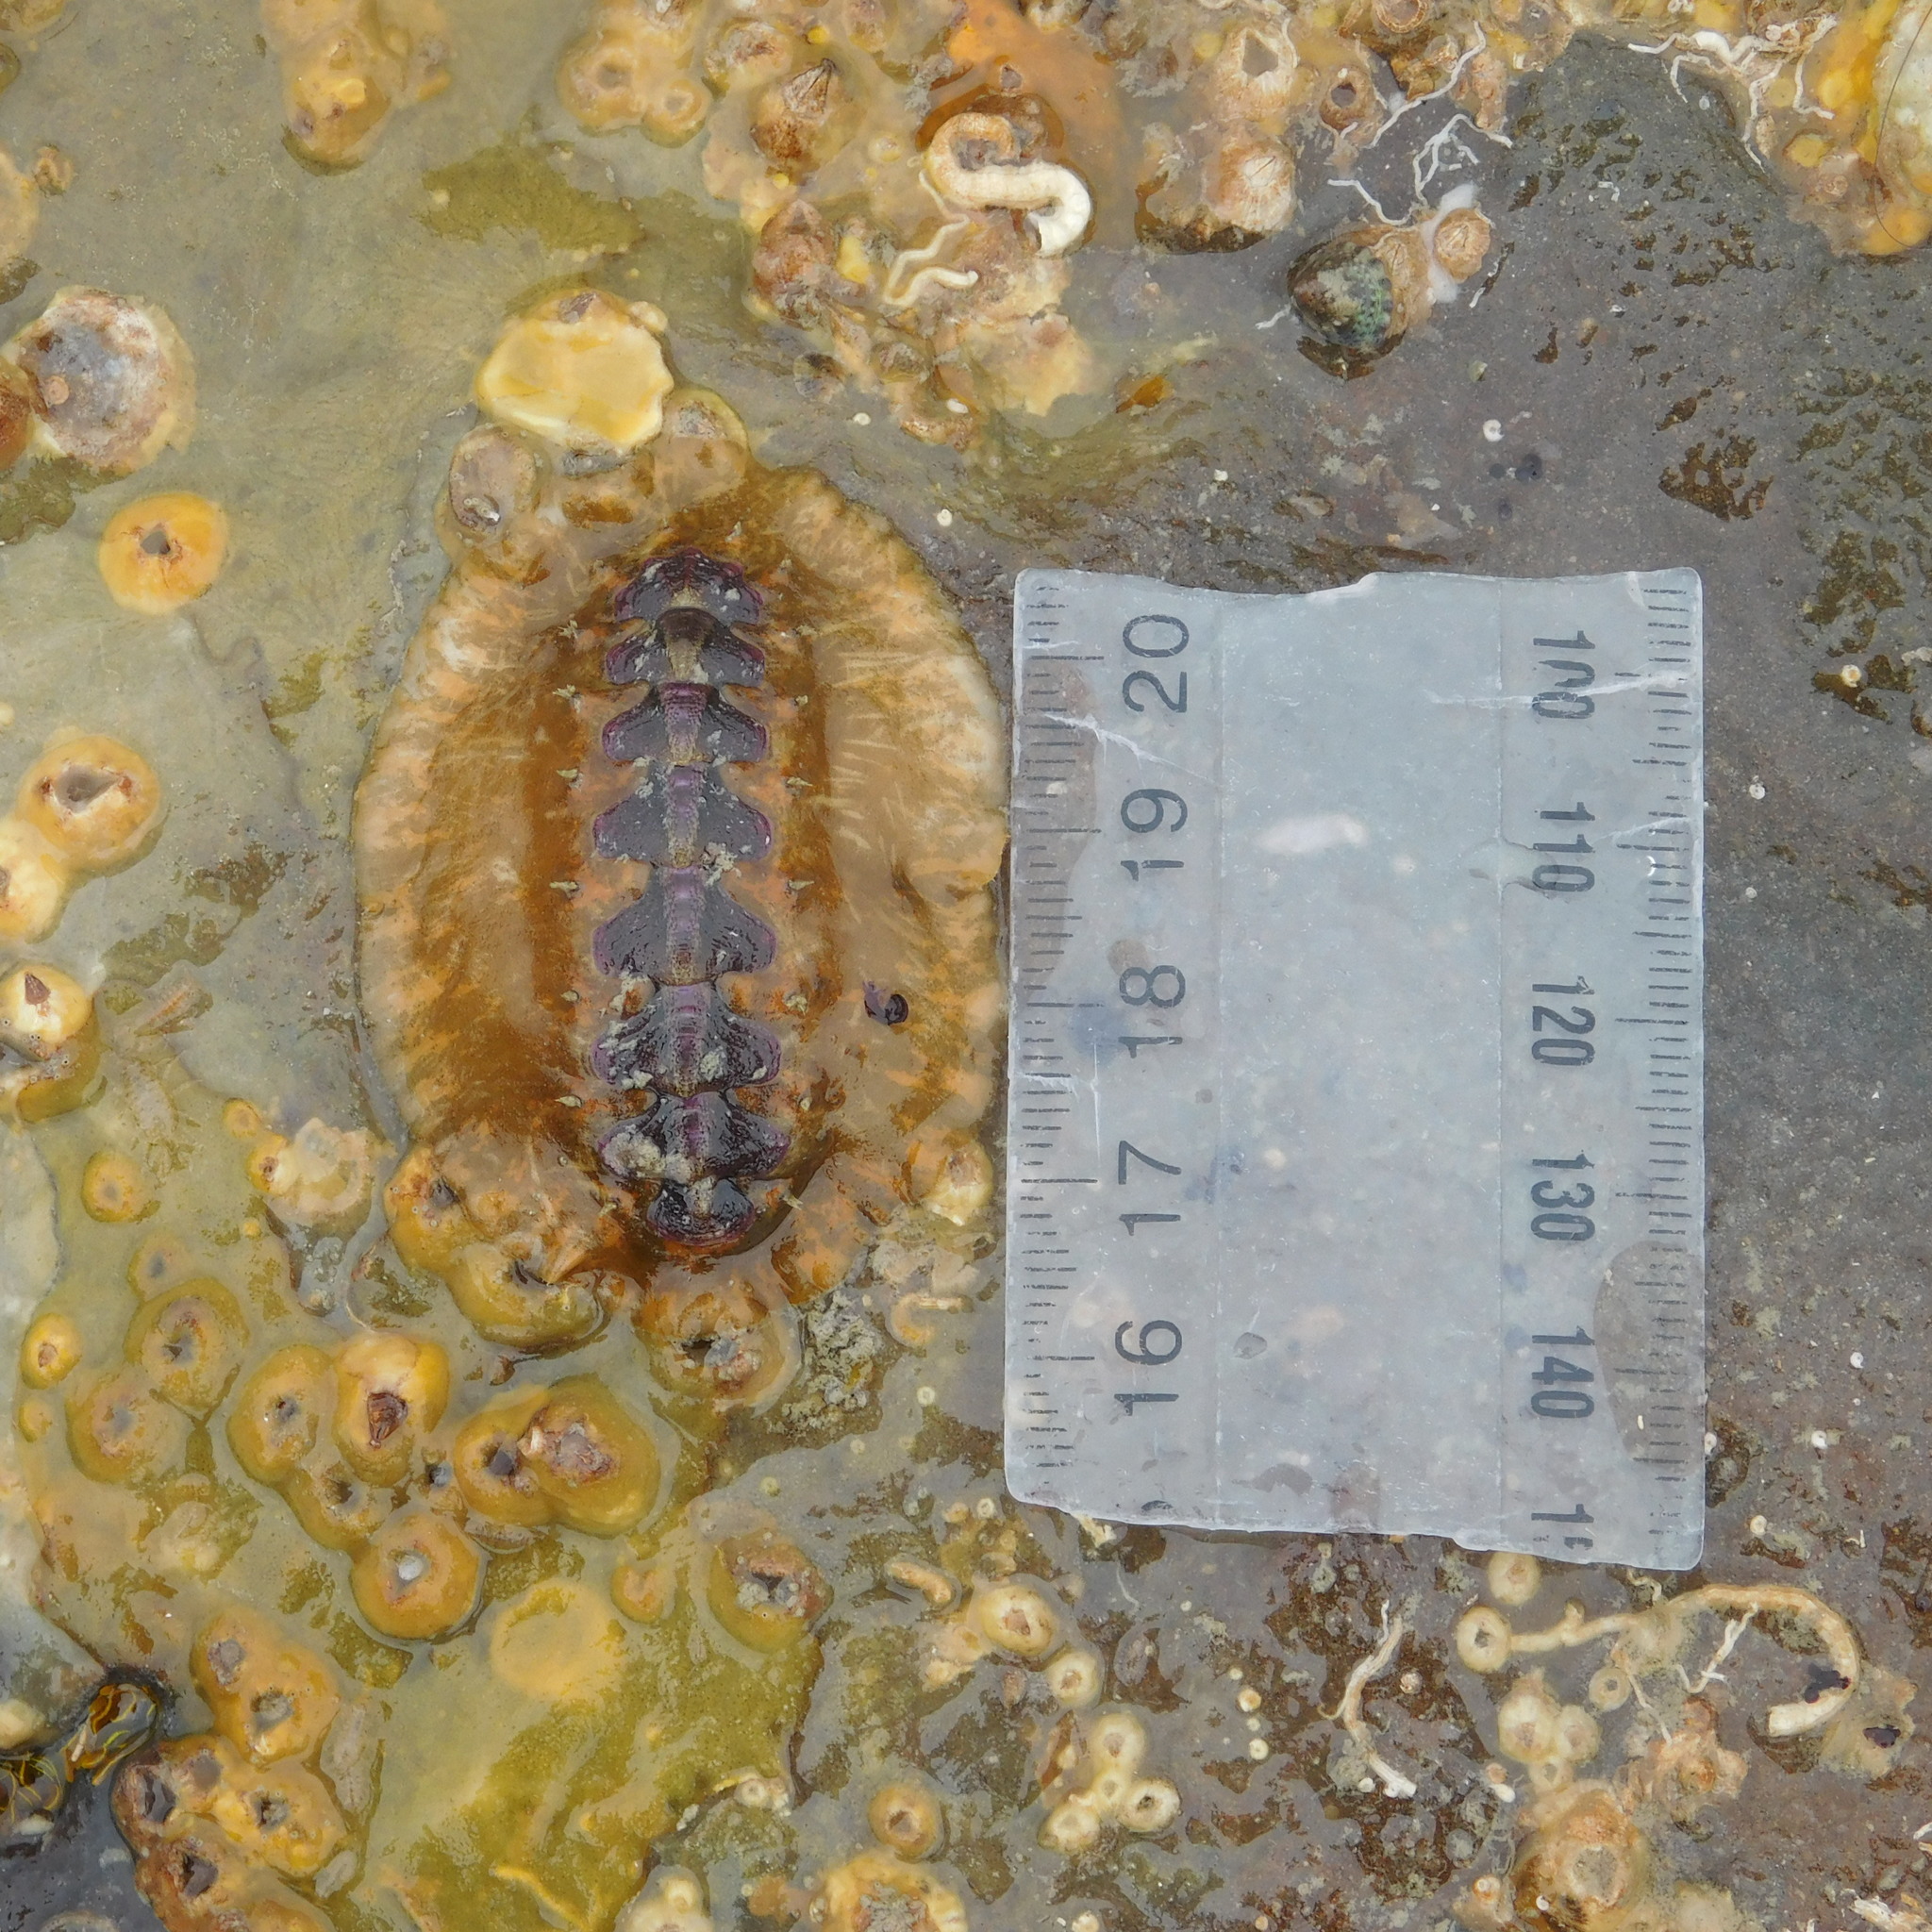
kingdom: Animalia
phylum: Mollusca
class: Polyplacophora
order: Chitonida
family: Acanthochitonidae
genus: Notoplax
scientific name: Notoplax violacea
